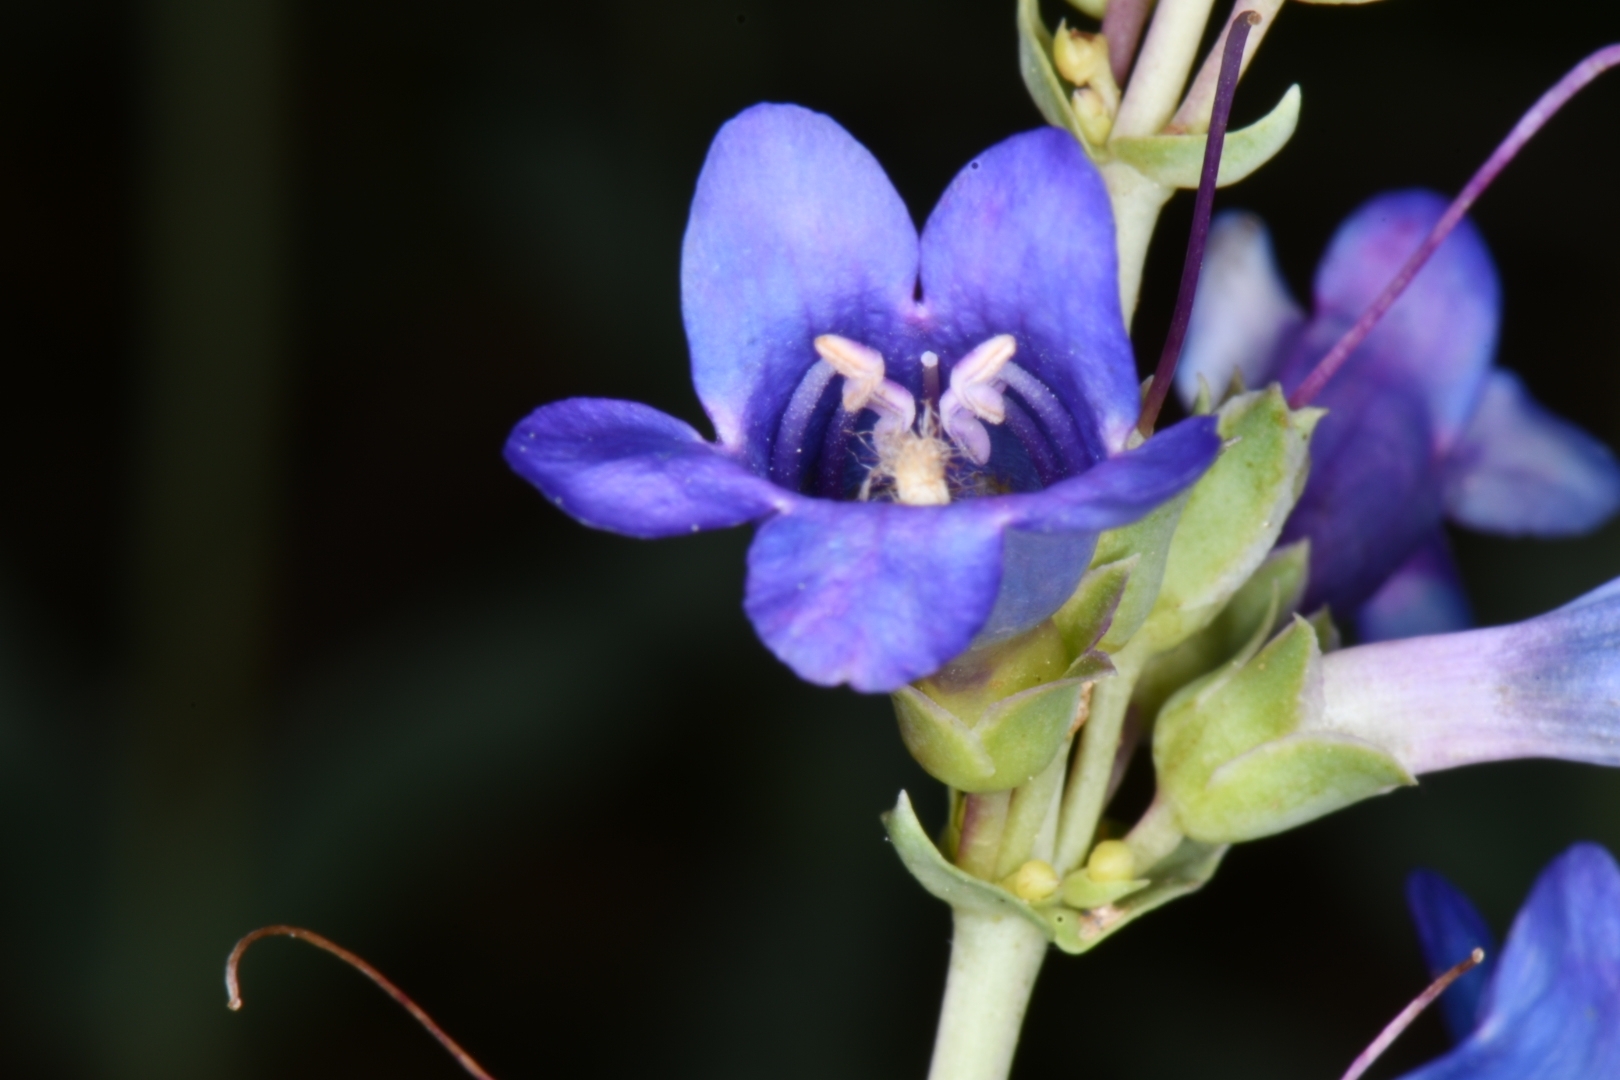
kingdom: Plantae
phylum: Tracheophyta
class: Magnoliopsida
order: Lamiales
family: Plantaginaceae
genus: Penstemon
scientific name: Penstemon pachyphyllus
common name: Thick-leaf penstemon
